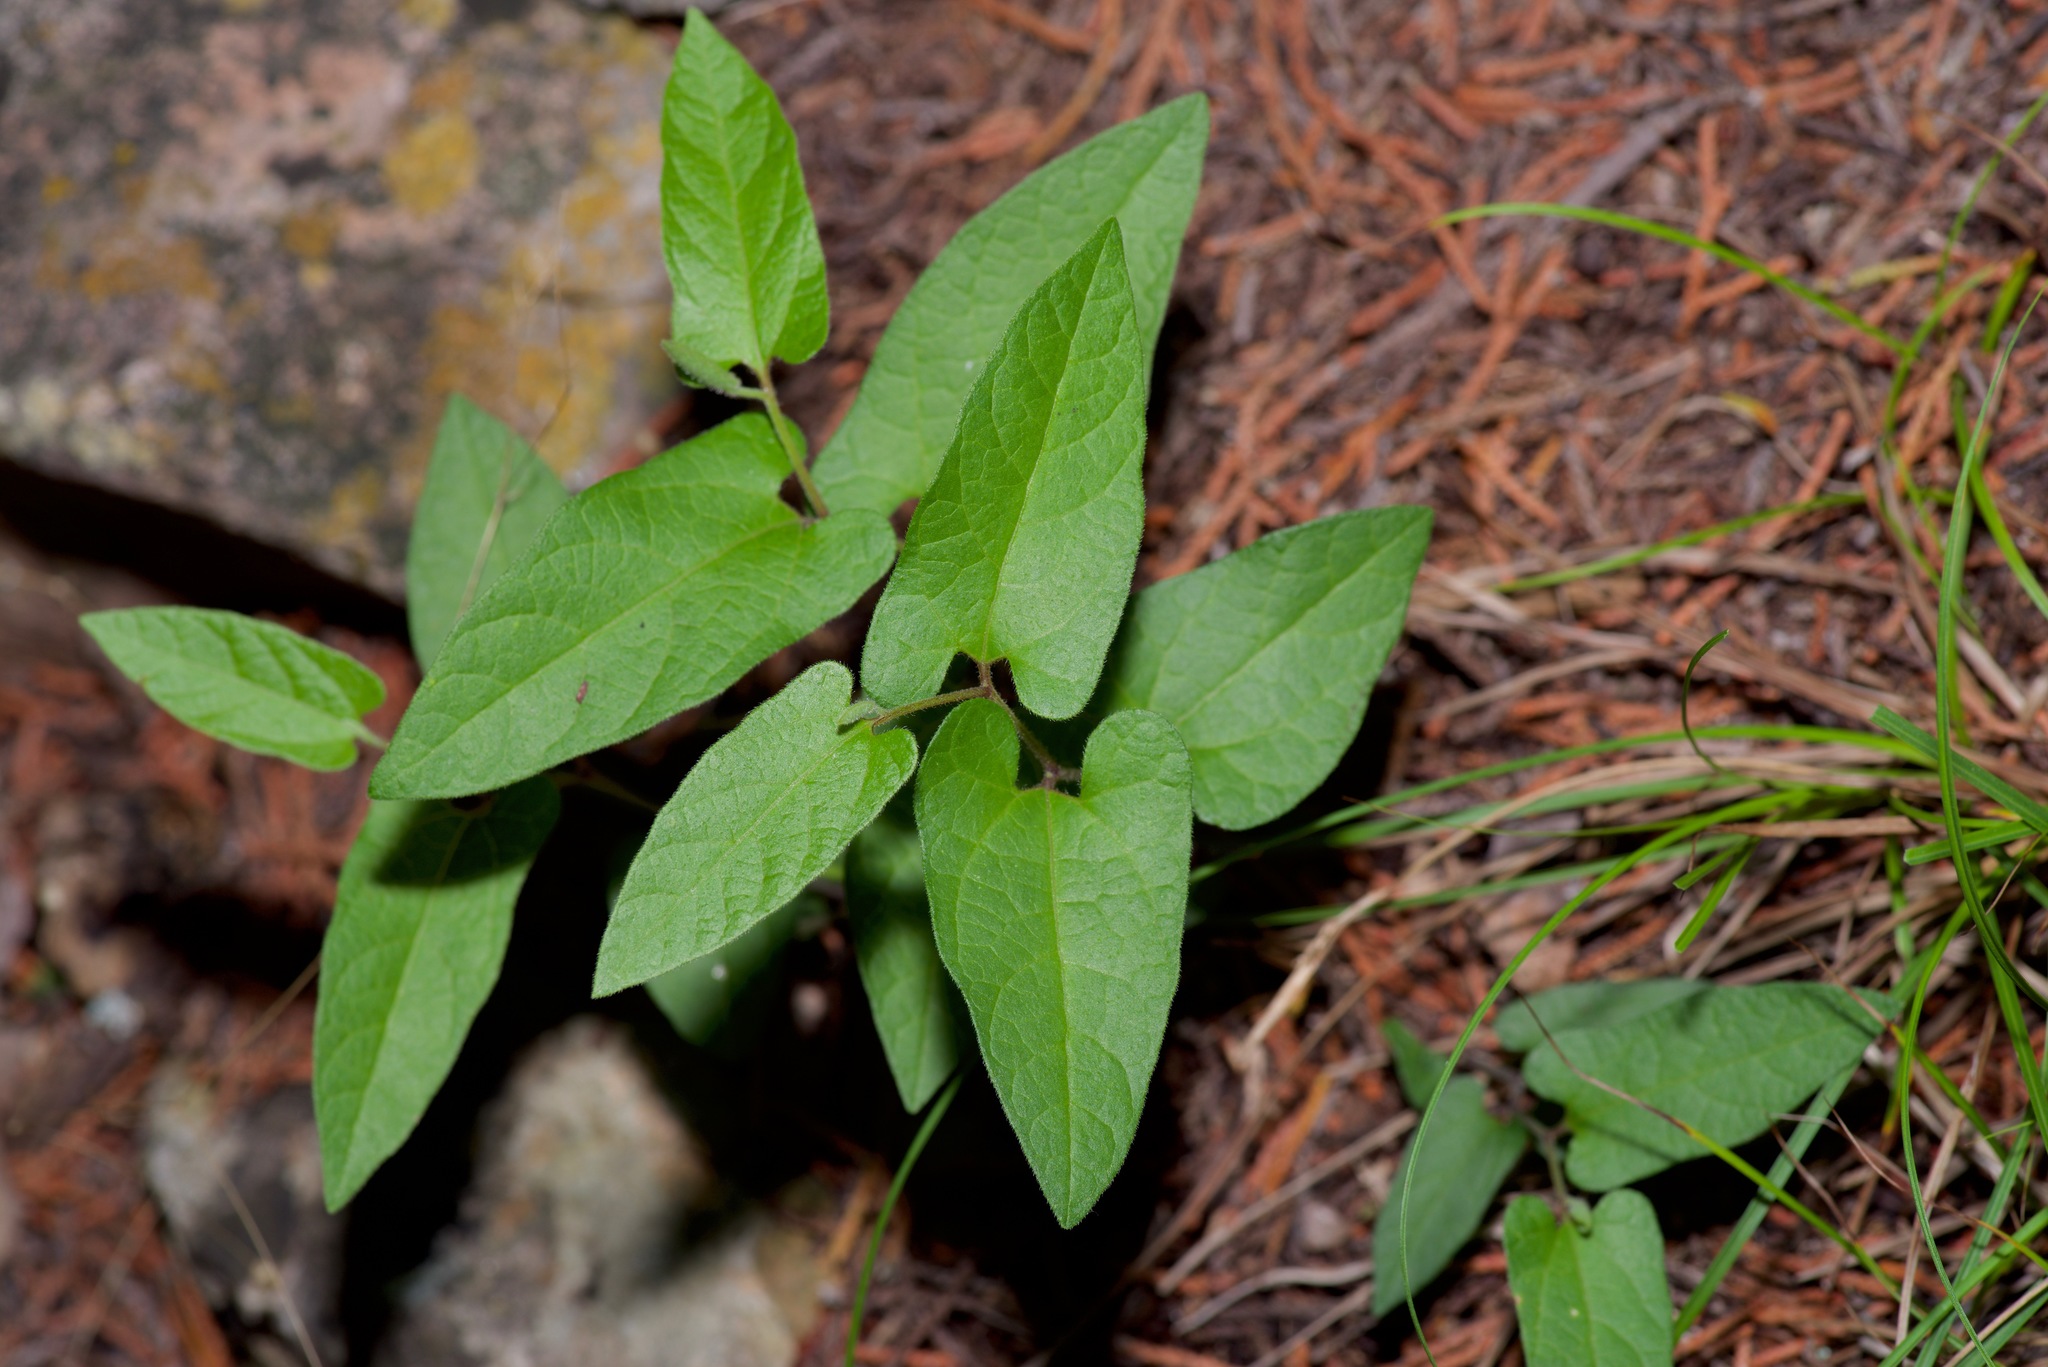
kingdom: Plantae
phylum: Tracheophyta
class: Magnoliopsida
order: Piperales
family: Aristolochiaceae
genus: Endodeca
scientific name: Endodeca serpentaria
